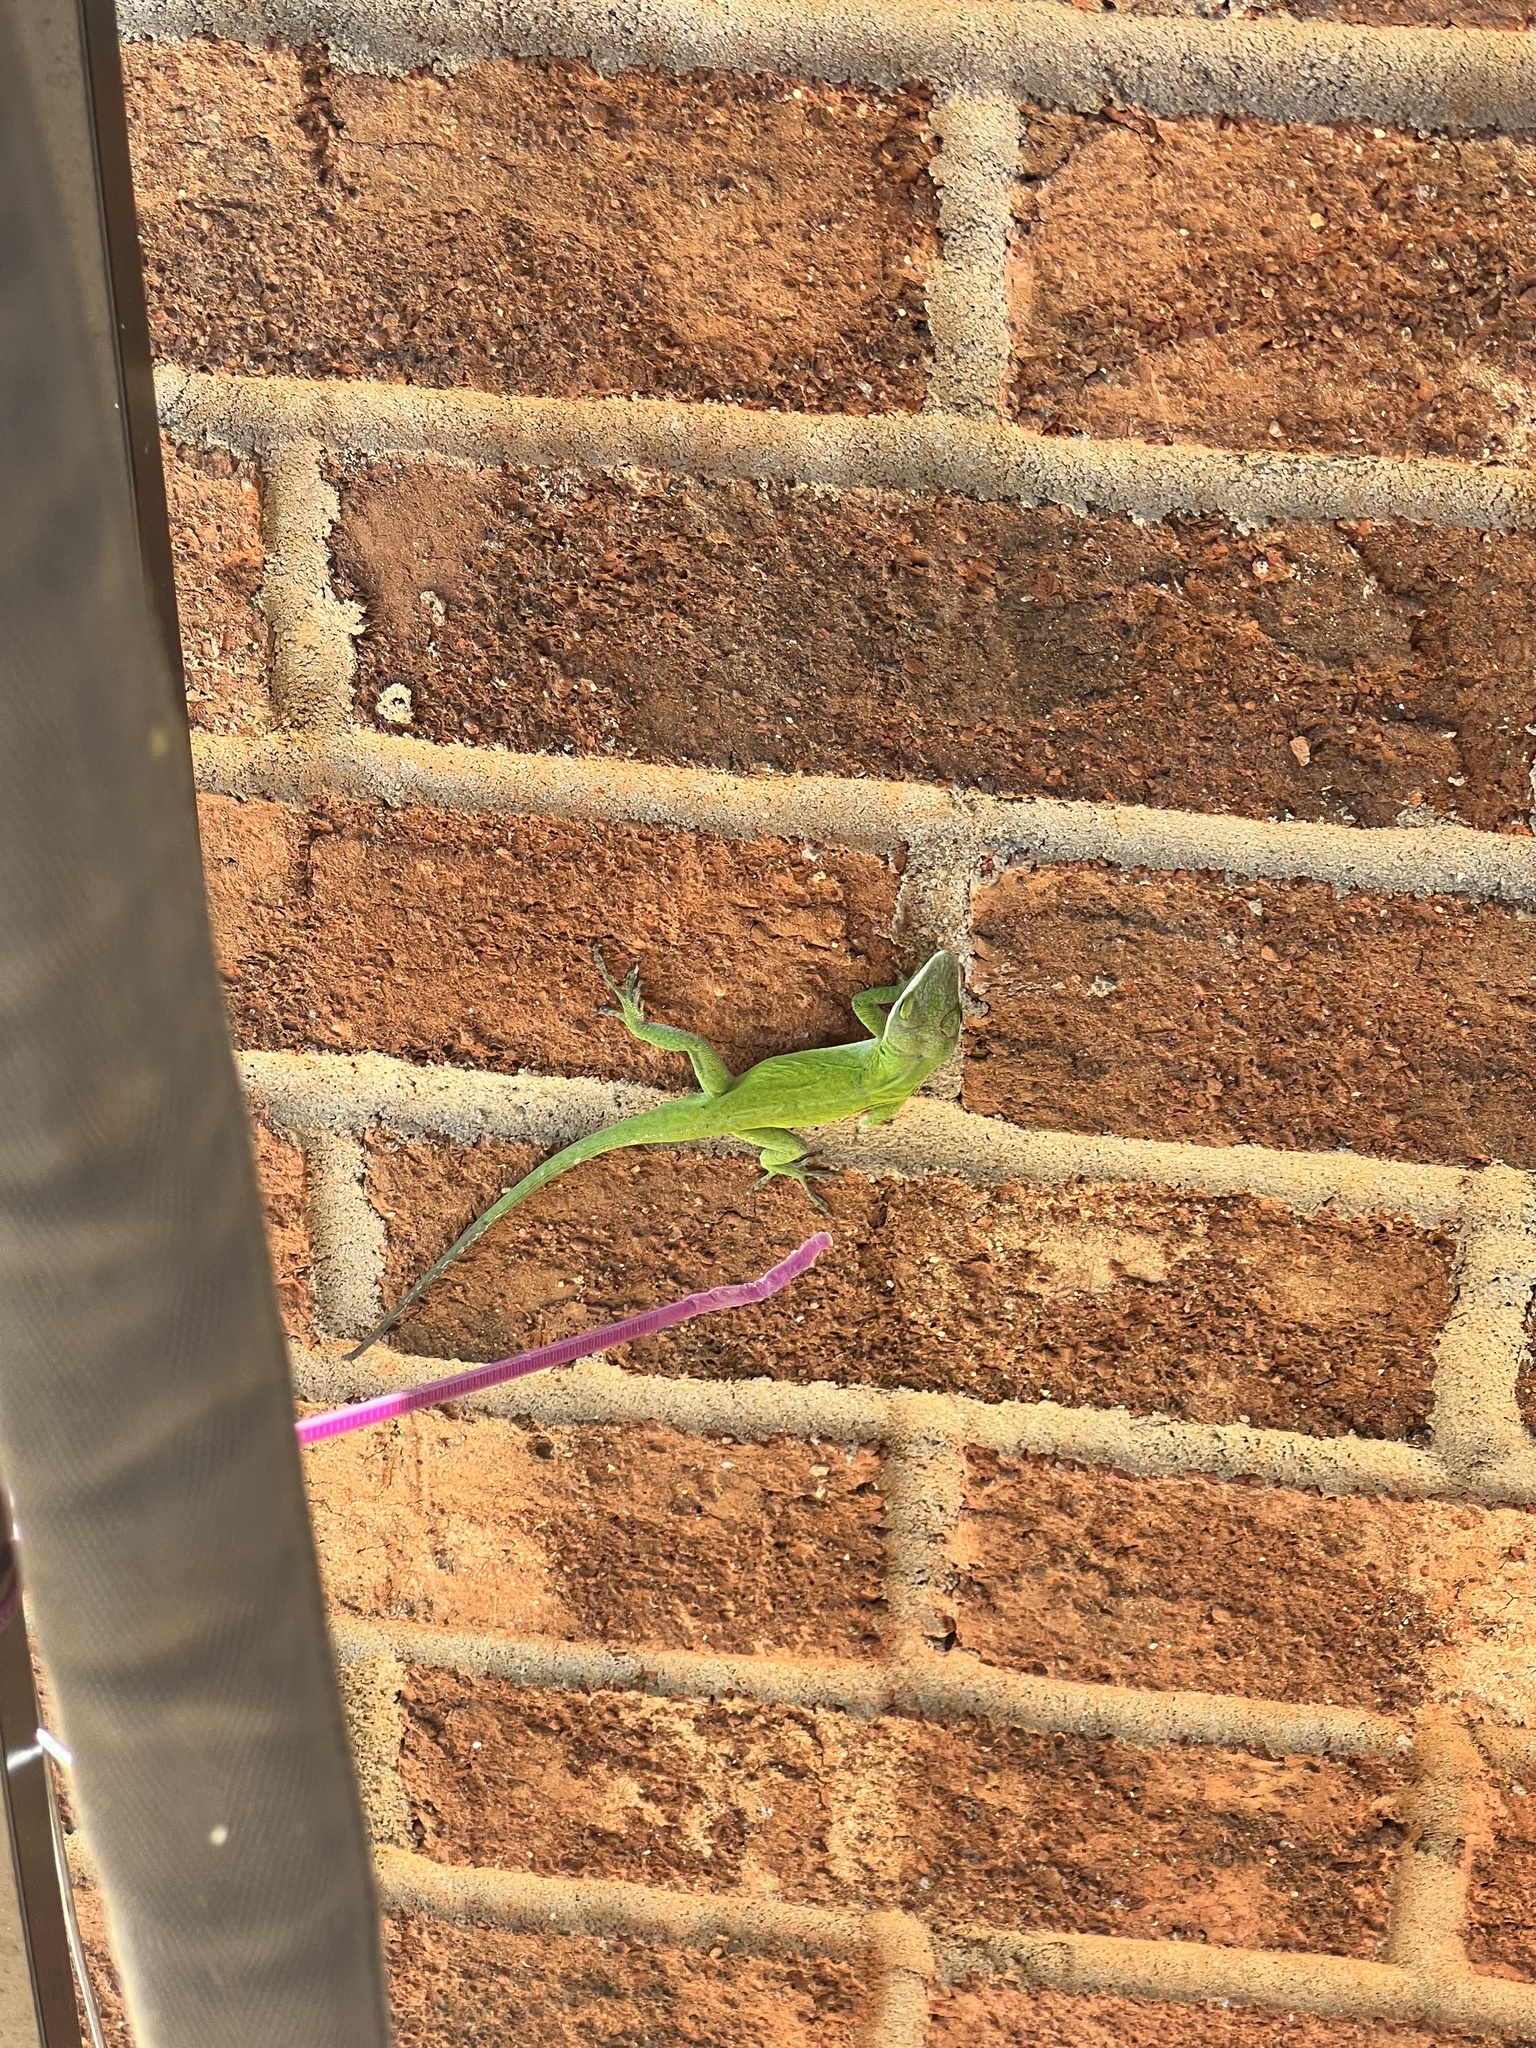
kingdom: Animalia
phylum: Chordata
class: Squamata
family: Dactyloidae
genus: Anolis
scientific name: Anolis carolinensis
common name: Green anole
